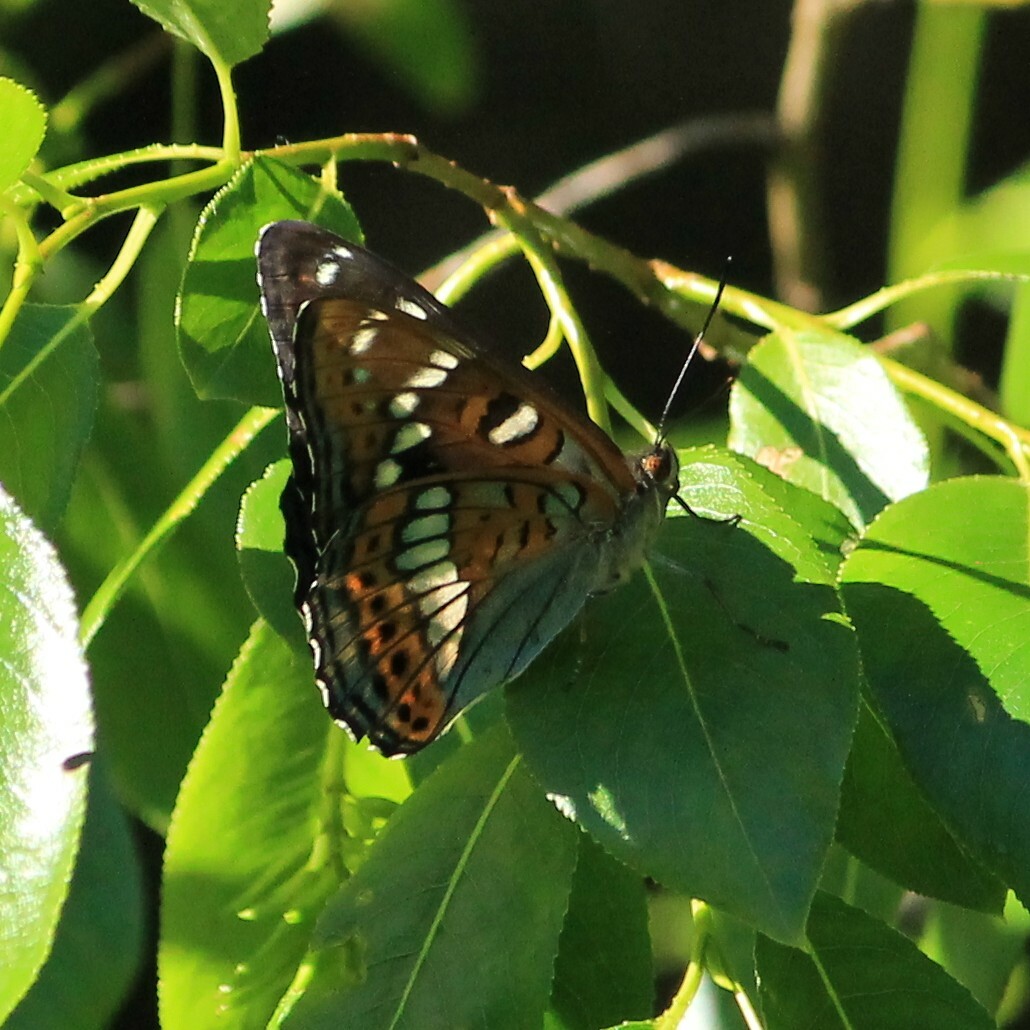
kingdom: Animalia
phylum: Arthropoda
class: Insecta
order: Lepidoptera
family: Nymphalidae
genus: Limenitis
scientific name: Limenitis populi
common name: Poplar admiral
